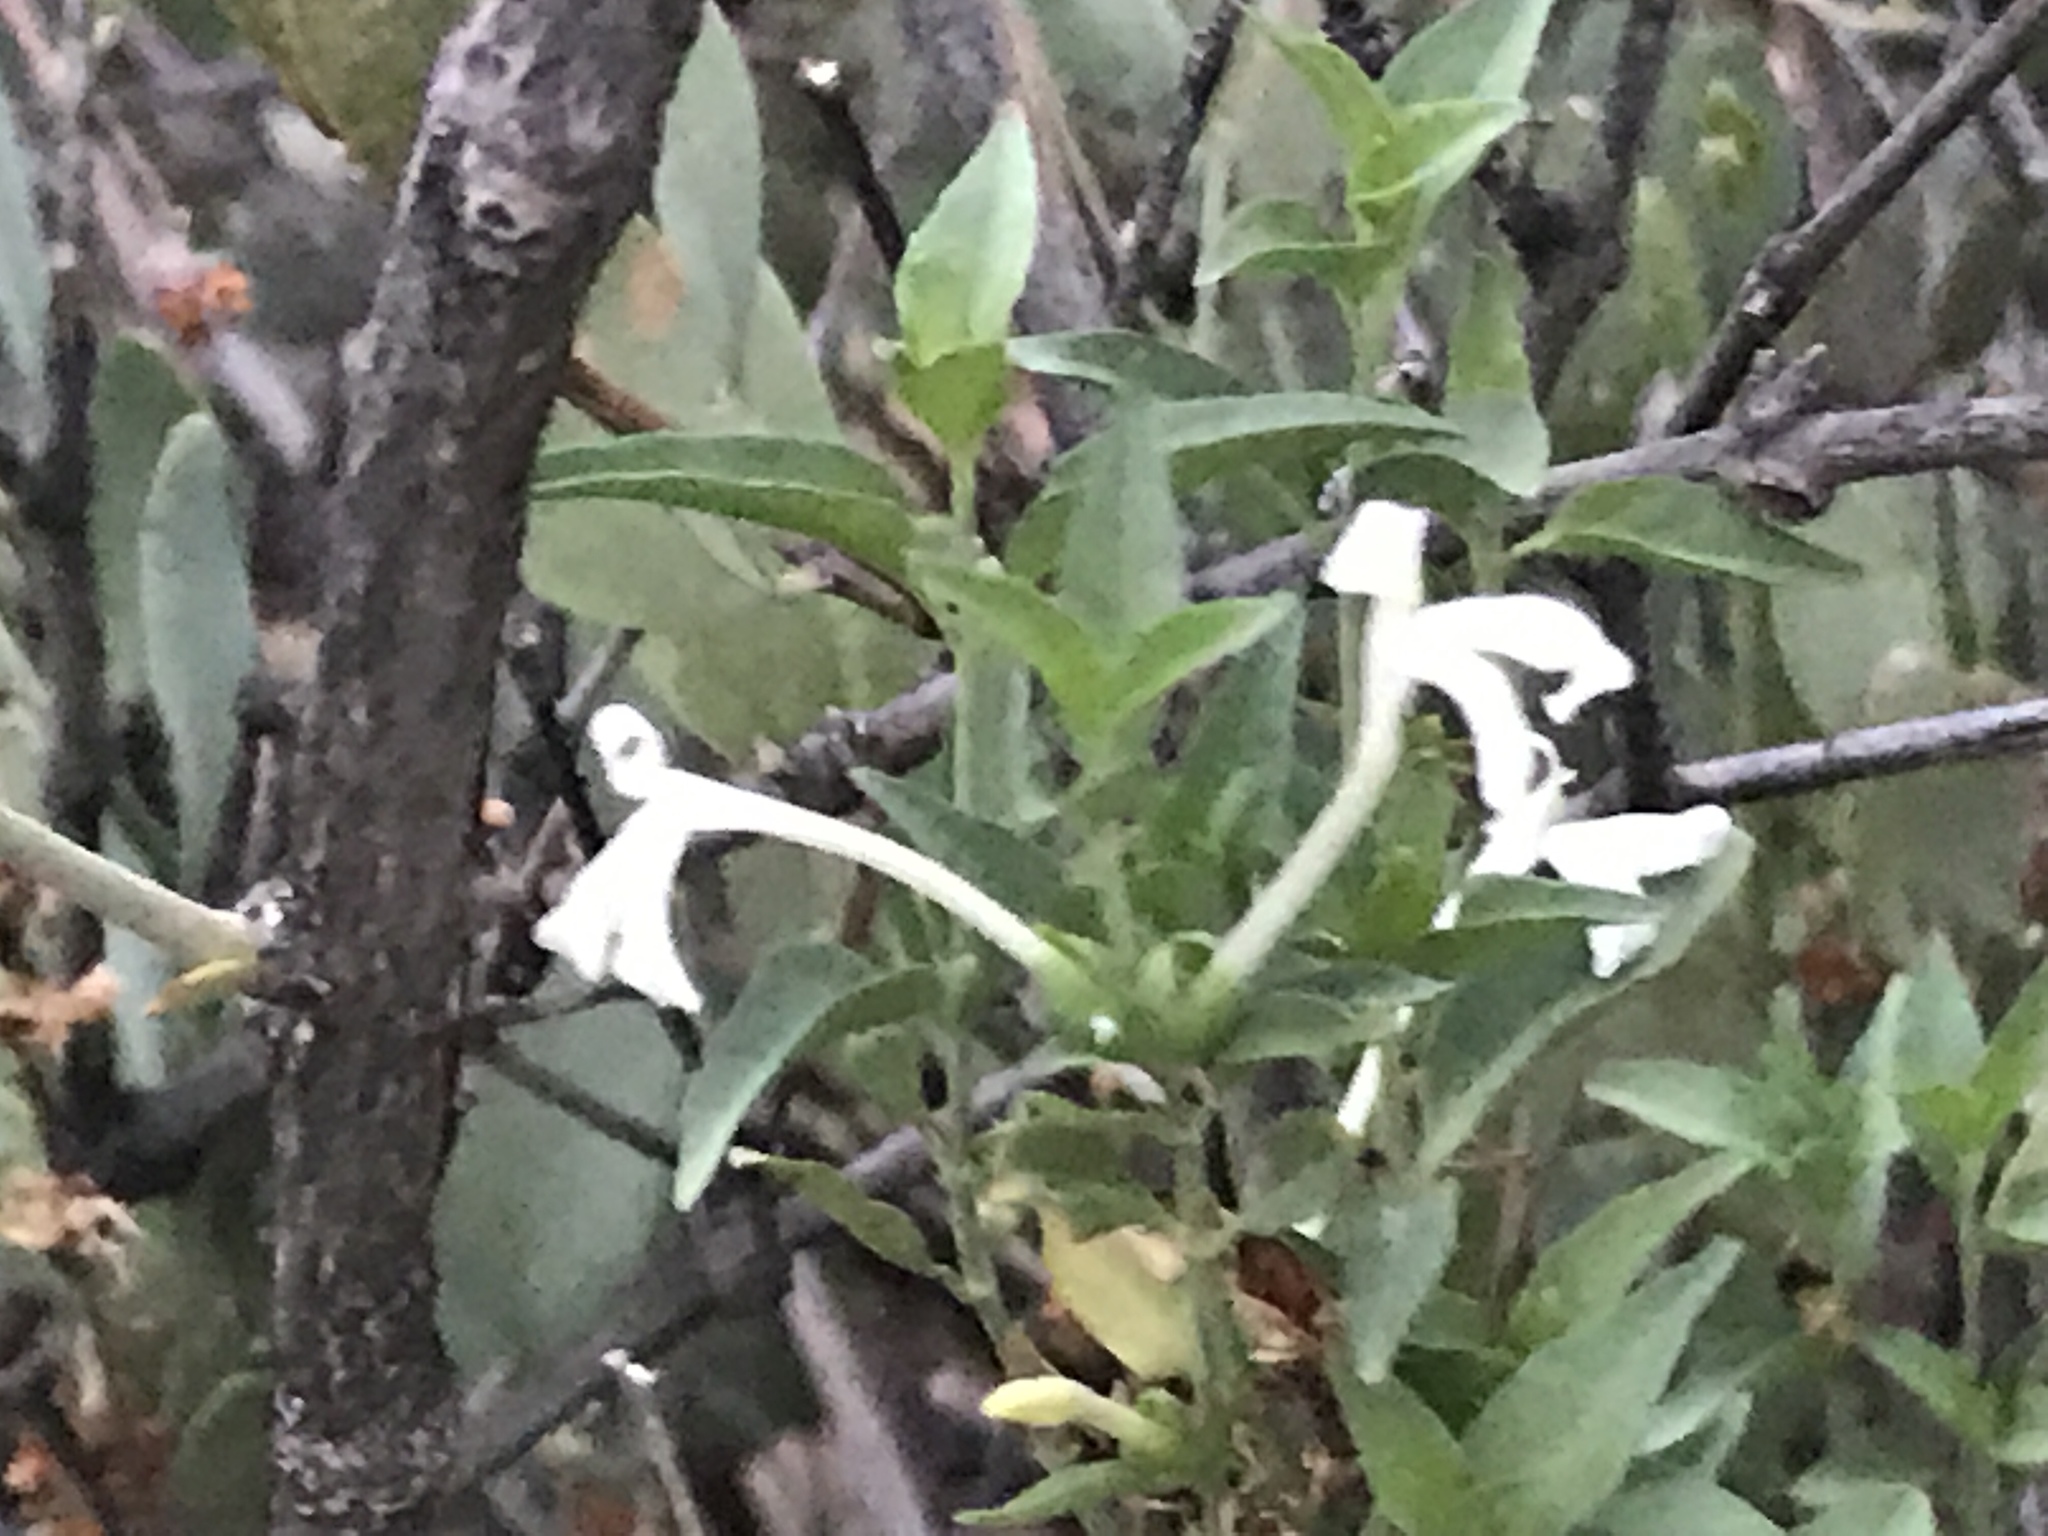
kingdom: Plantae
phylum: Tracheophyta
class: Magnoliopsida
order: Lamiales
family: Acanthaceae
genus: Justicia
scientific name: Justicia longii
